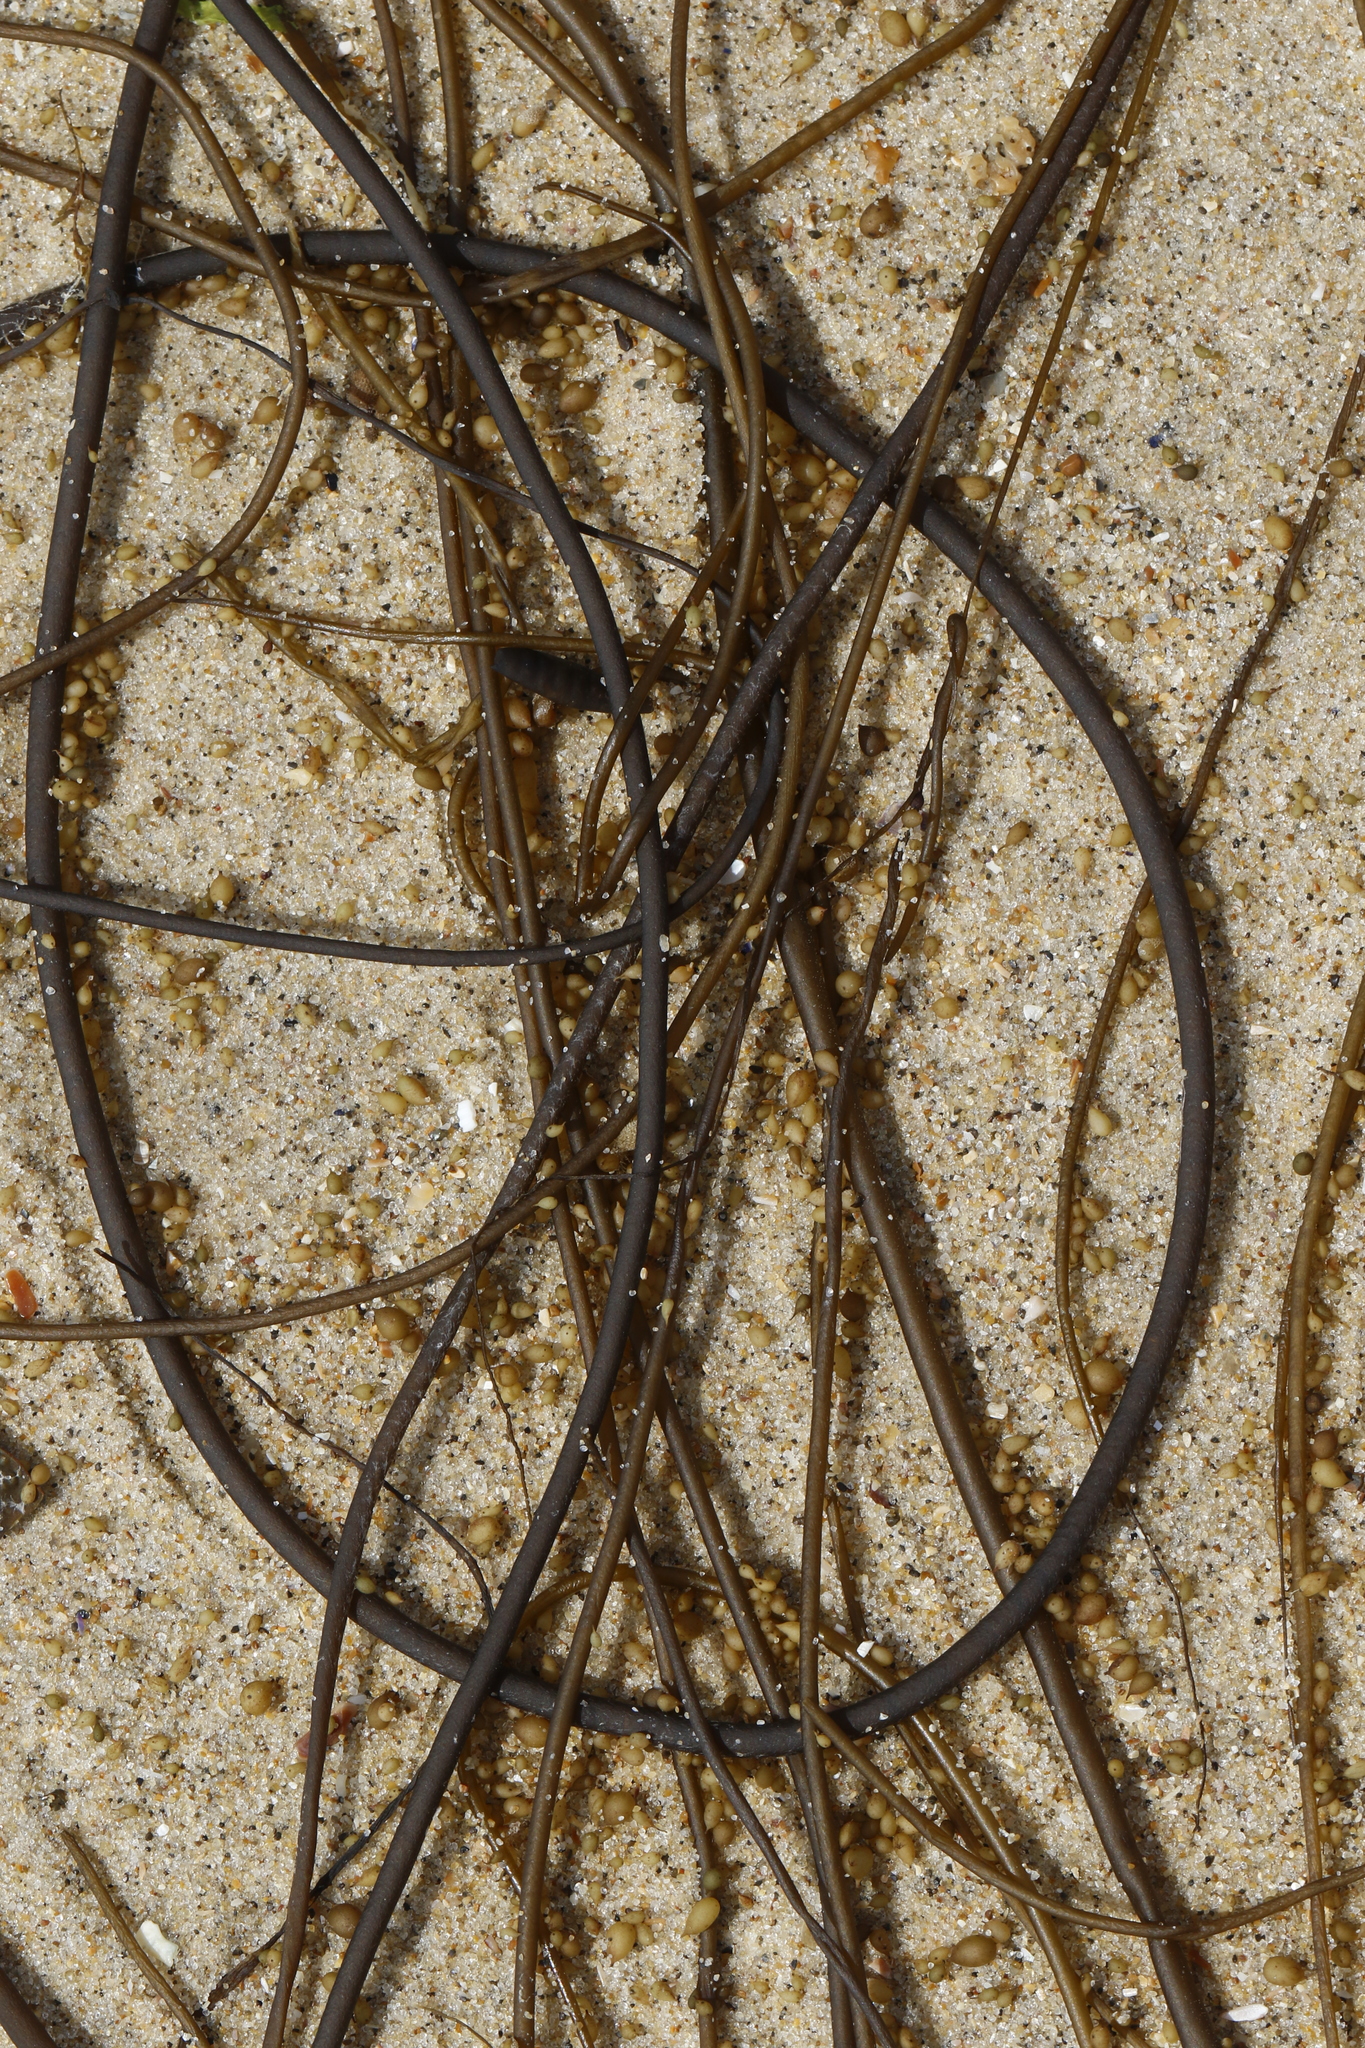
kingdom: Chromista
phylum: Ochrophyta
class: Phaeophyceae
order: Fucales
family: Himanthaliaceae
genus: Himanthalia
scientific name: Himanthalia elongata
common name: Sea-thong
